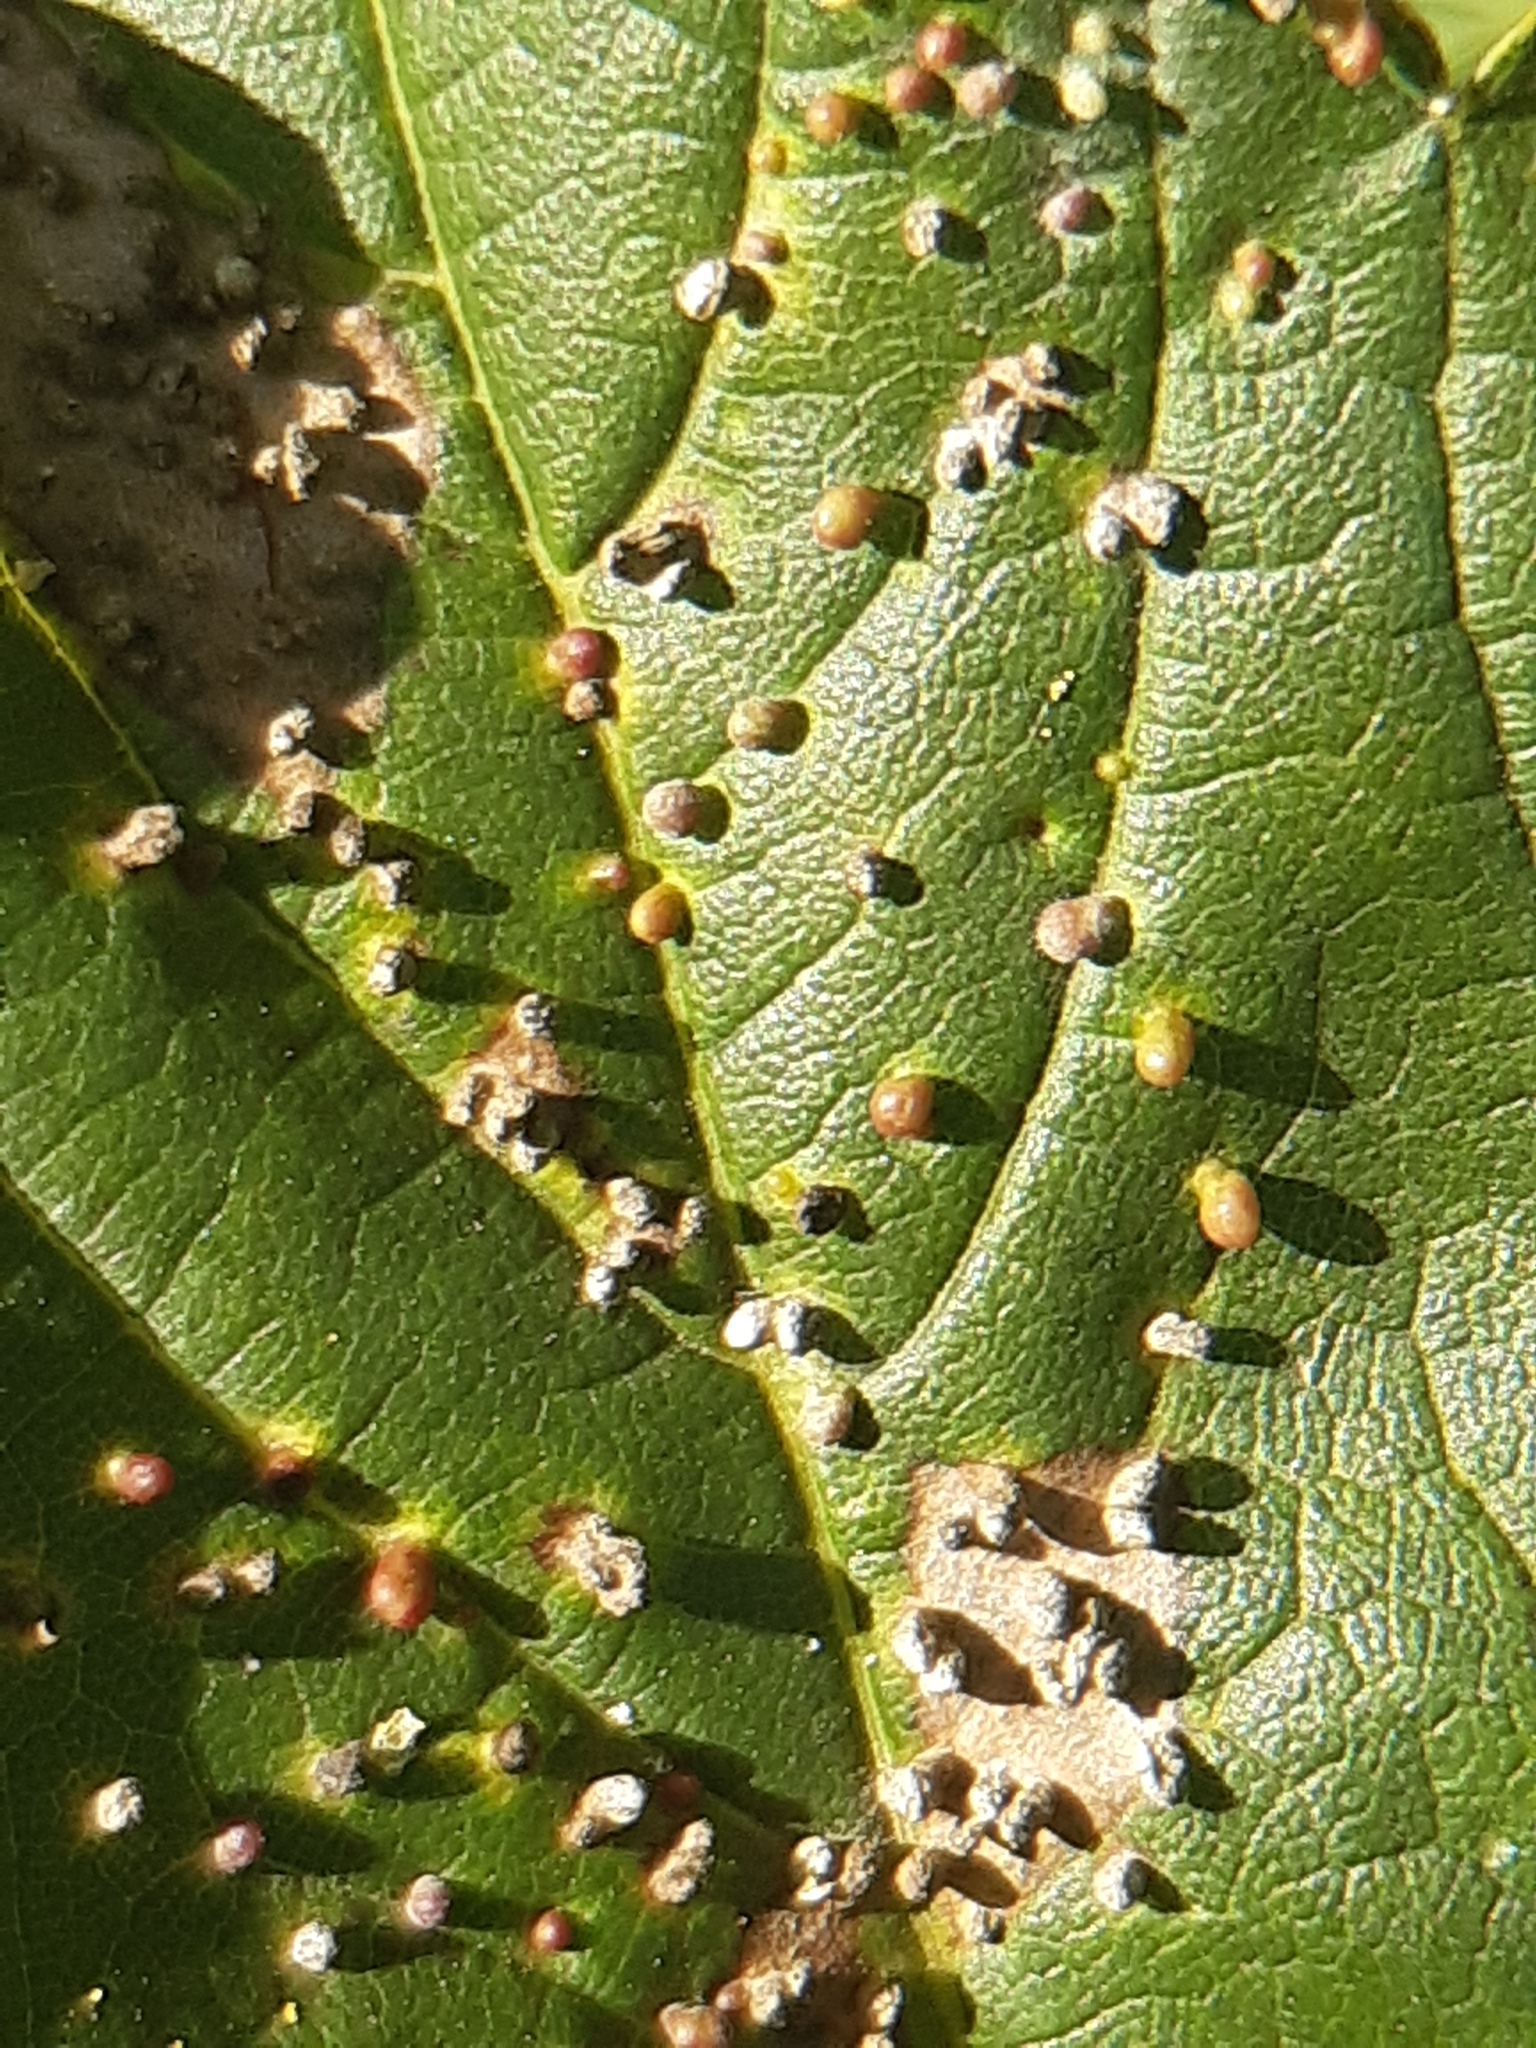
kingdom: Animalia
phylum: Arthropoda
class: Arachnida
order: Trombidiformes
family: Eriophyidae
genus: Aceria
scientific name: Aceria cephaloneus
